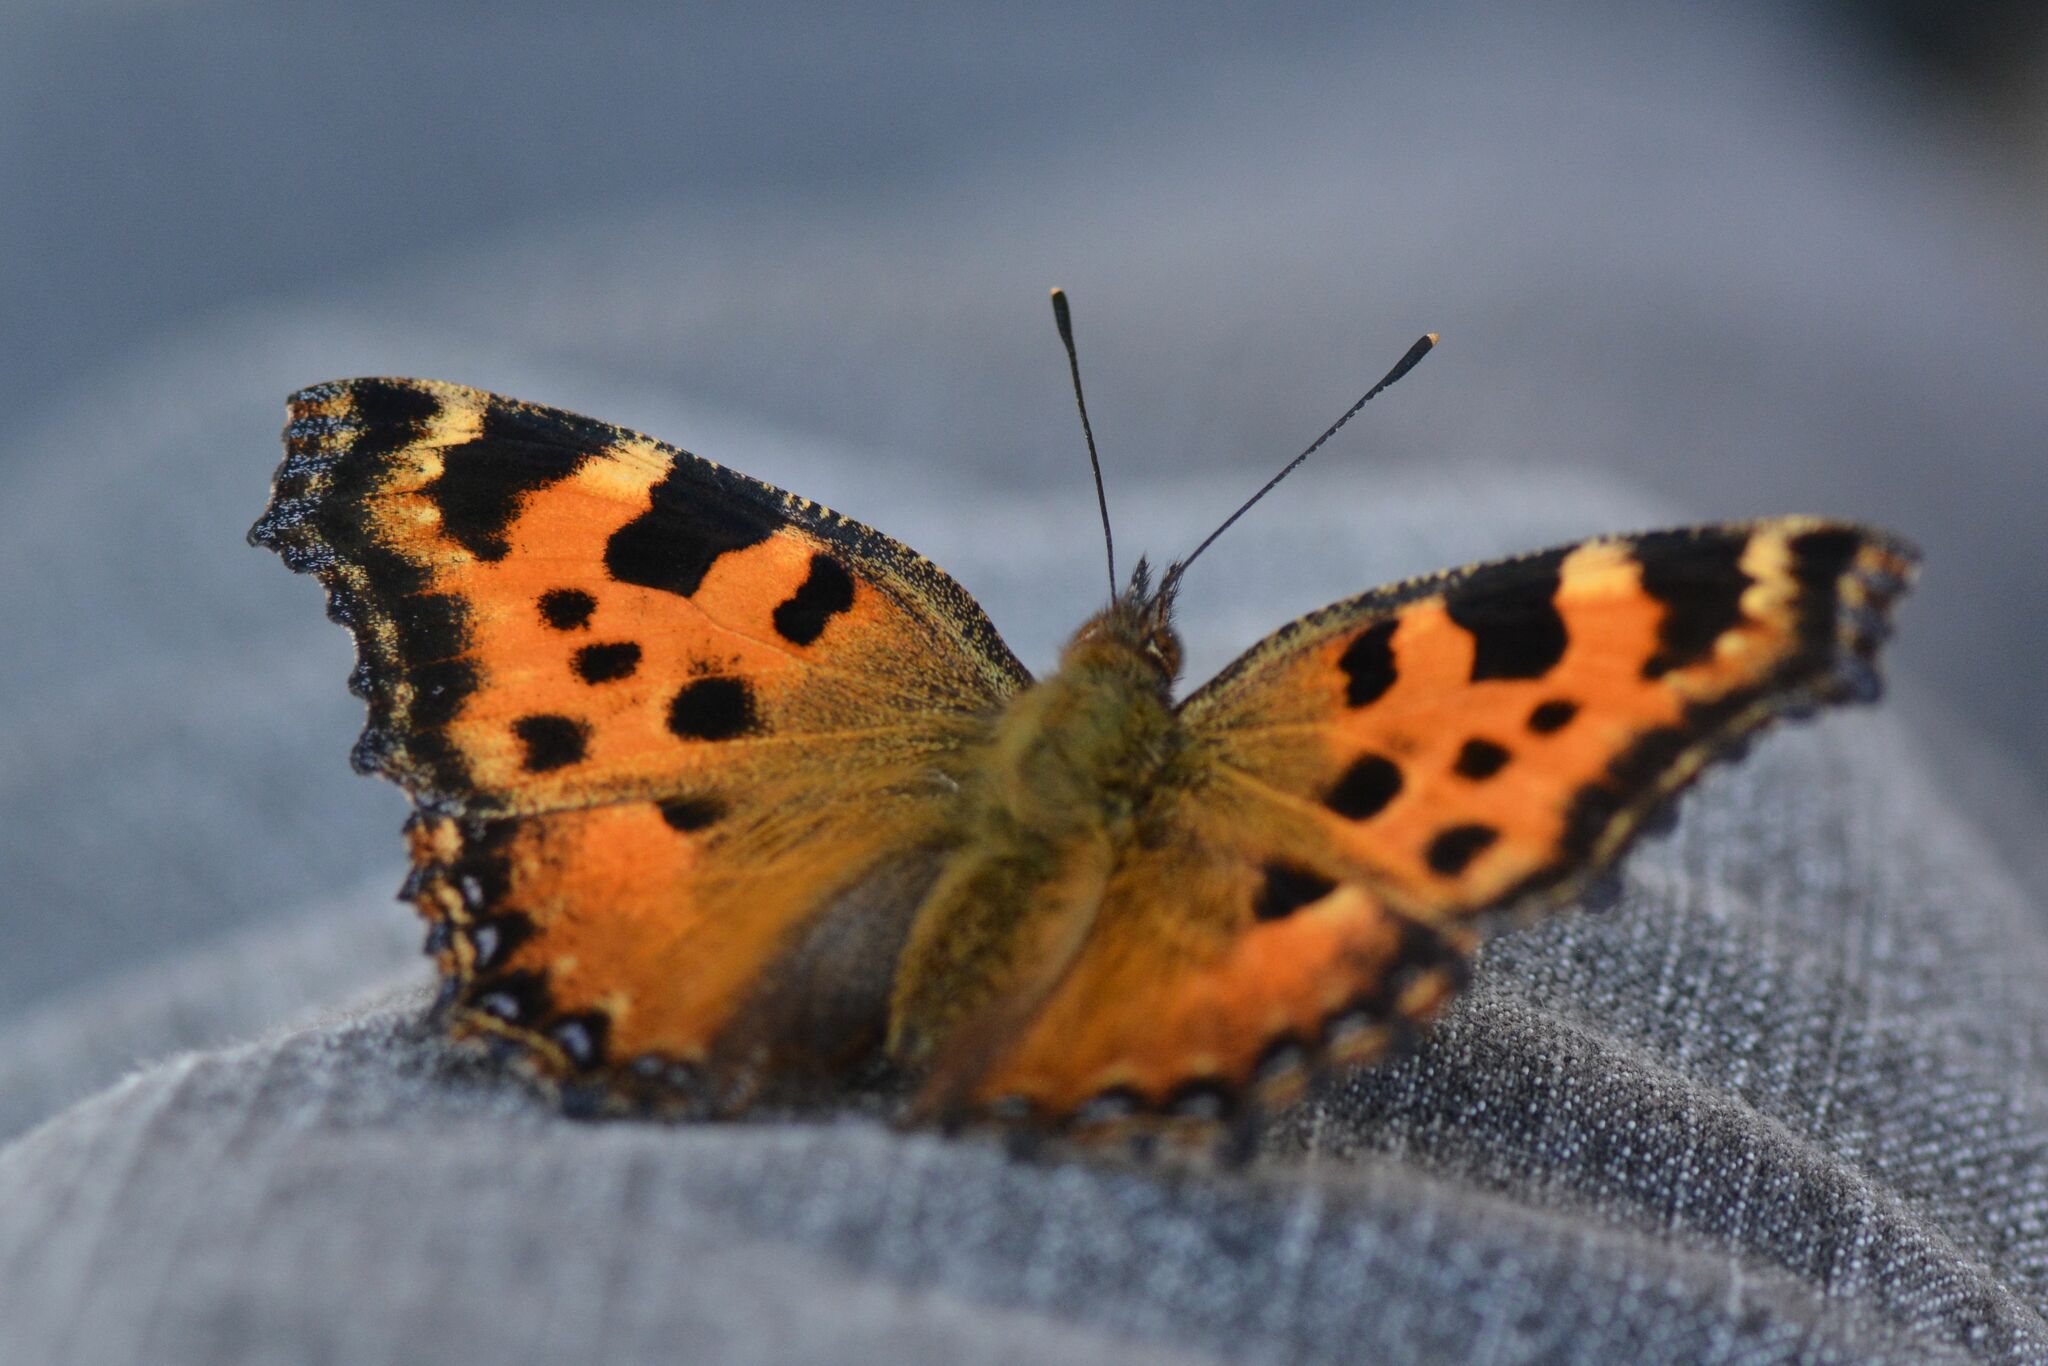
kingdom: Animalia
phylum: Arthropoda
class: Insecta
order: Lepidoptera
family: Nymphalidae
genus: Nymphalis
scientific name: Nymphalis polychloros
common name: Large tortoiseshell
